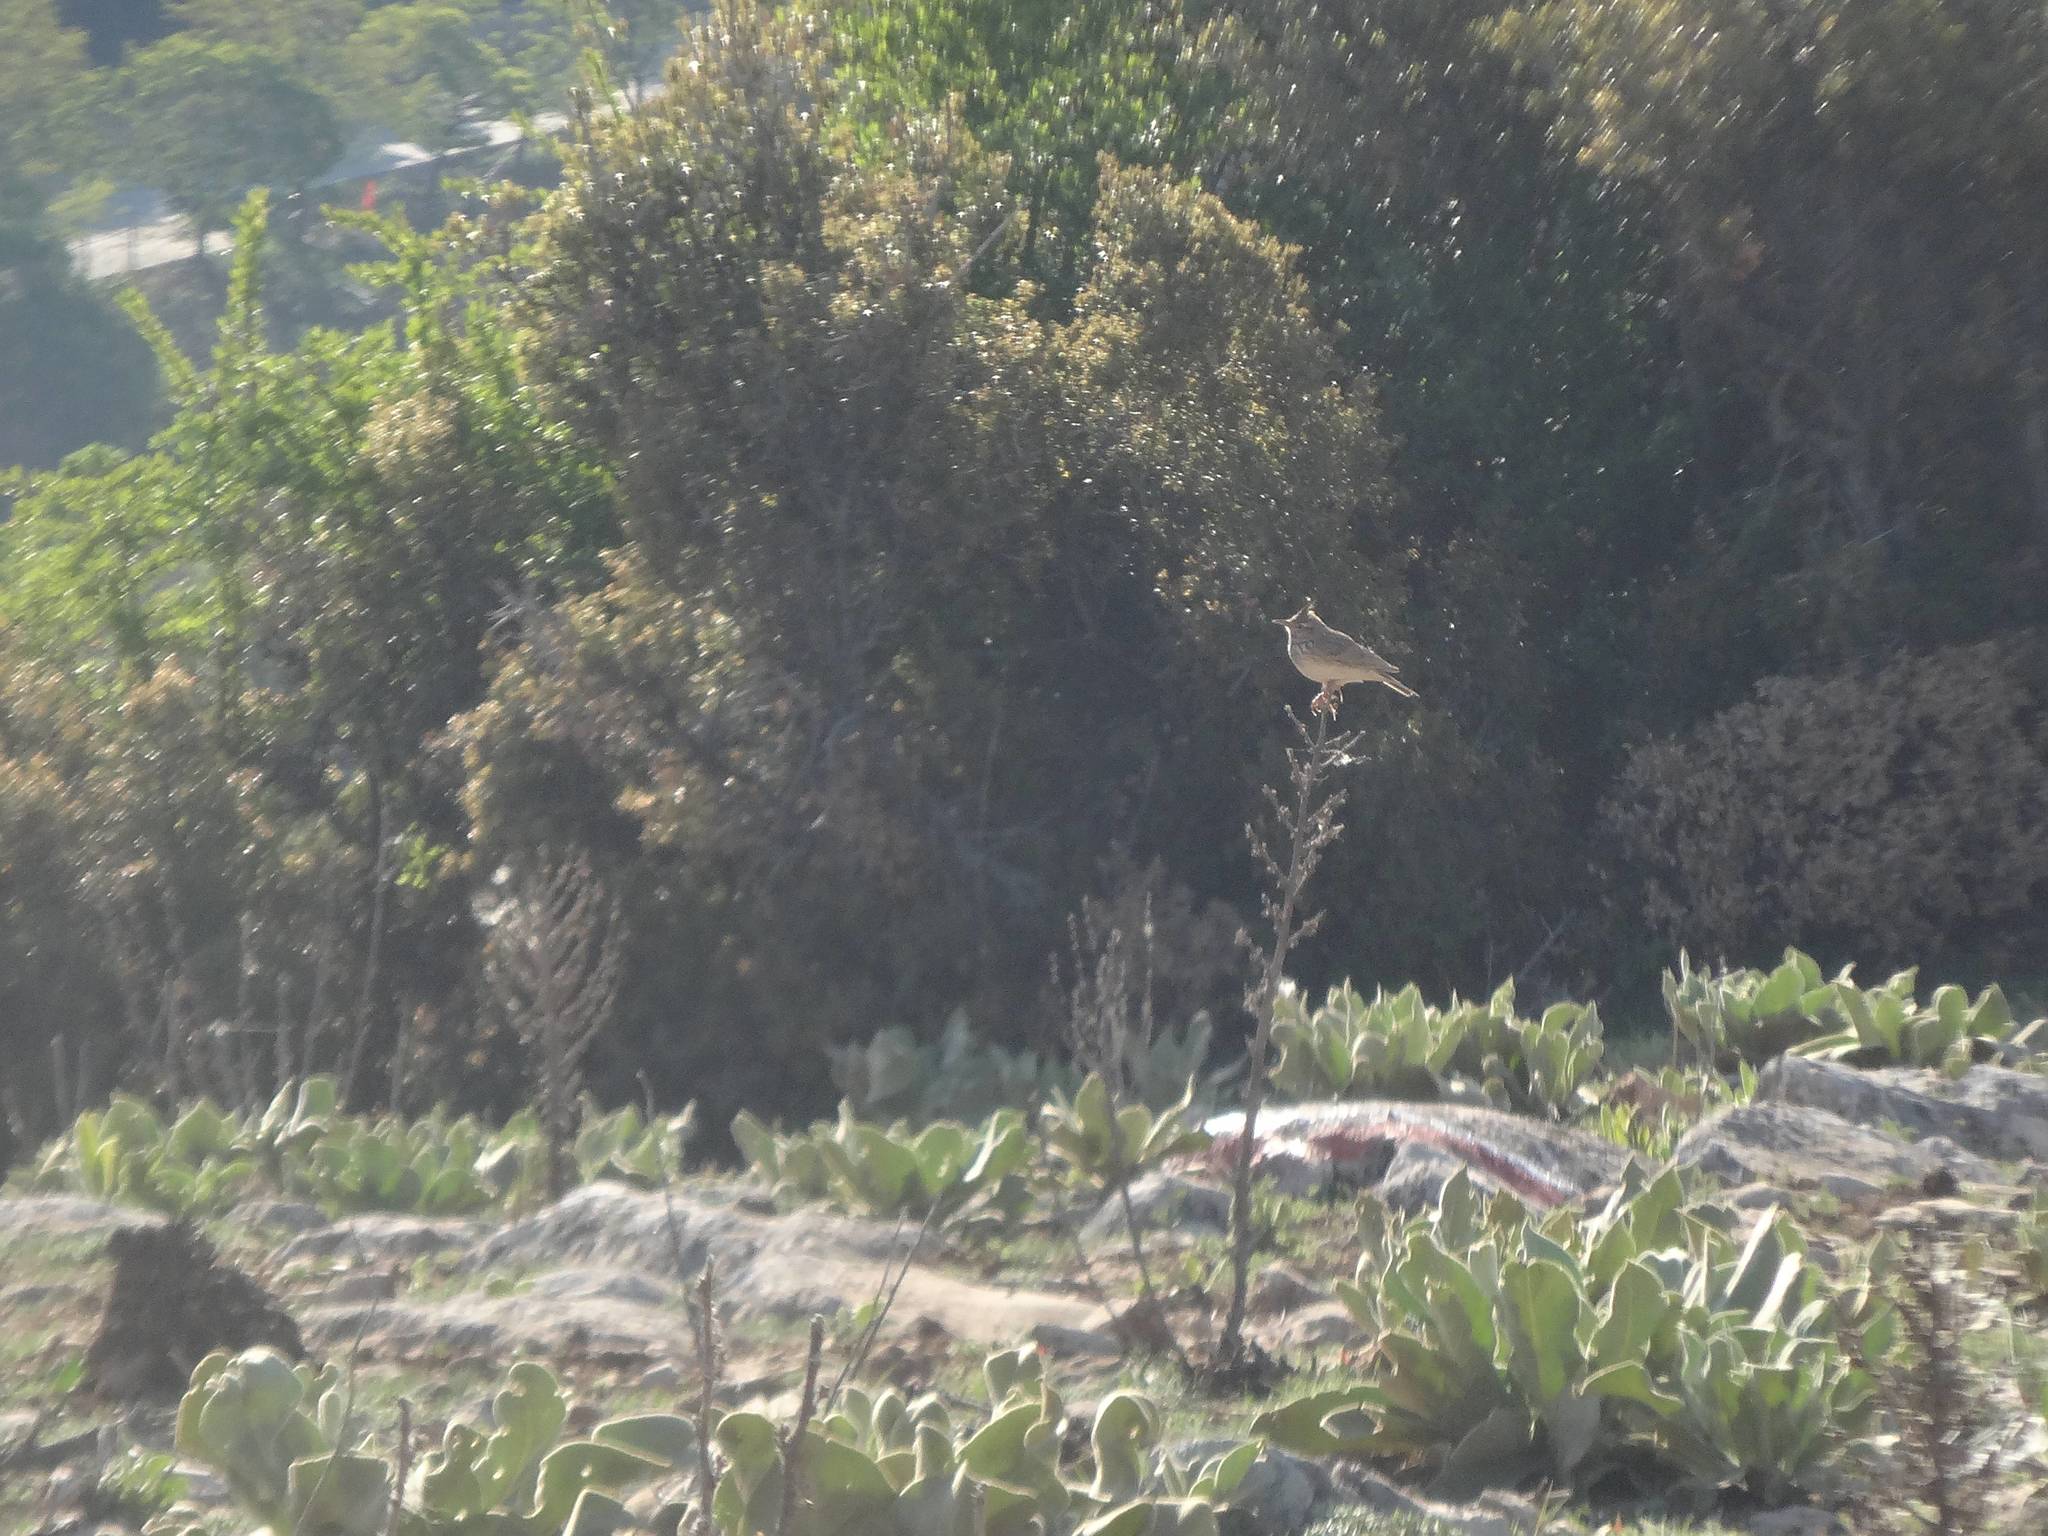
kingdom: Animalia
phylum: Chordata
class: Aves
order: Passeriformes
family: Alaudidae
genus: Galerida
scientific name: Galerida cristata
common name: Crested lark
